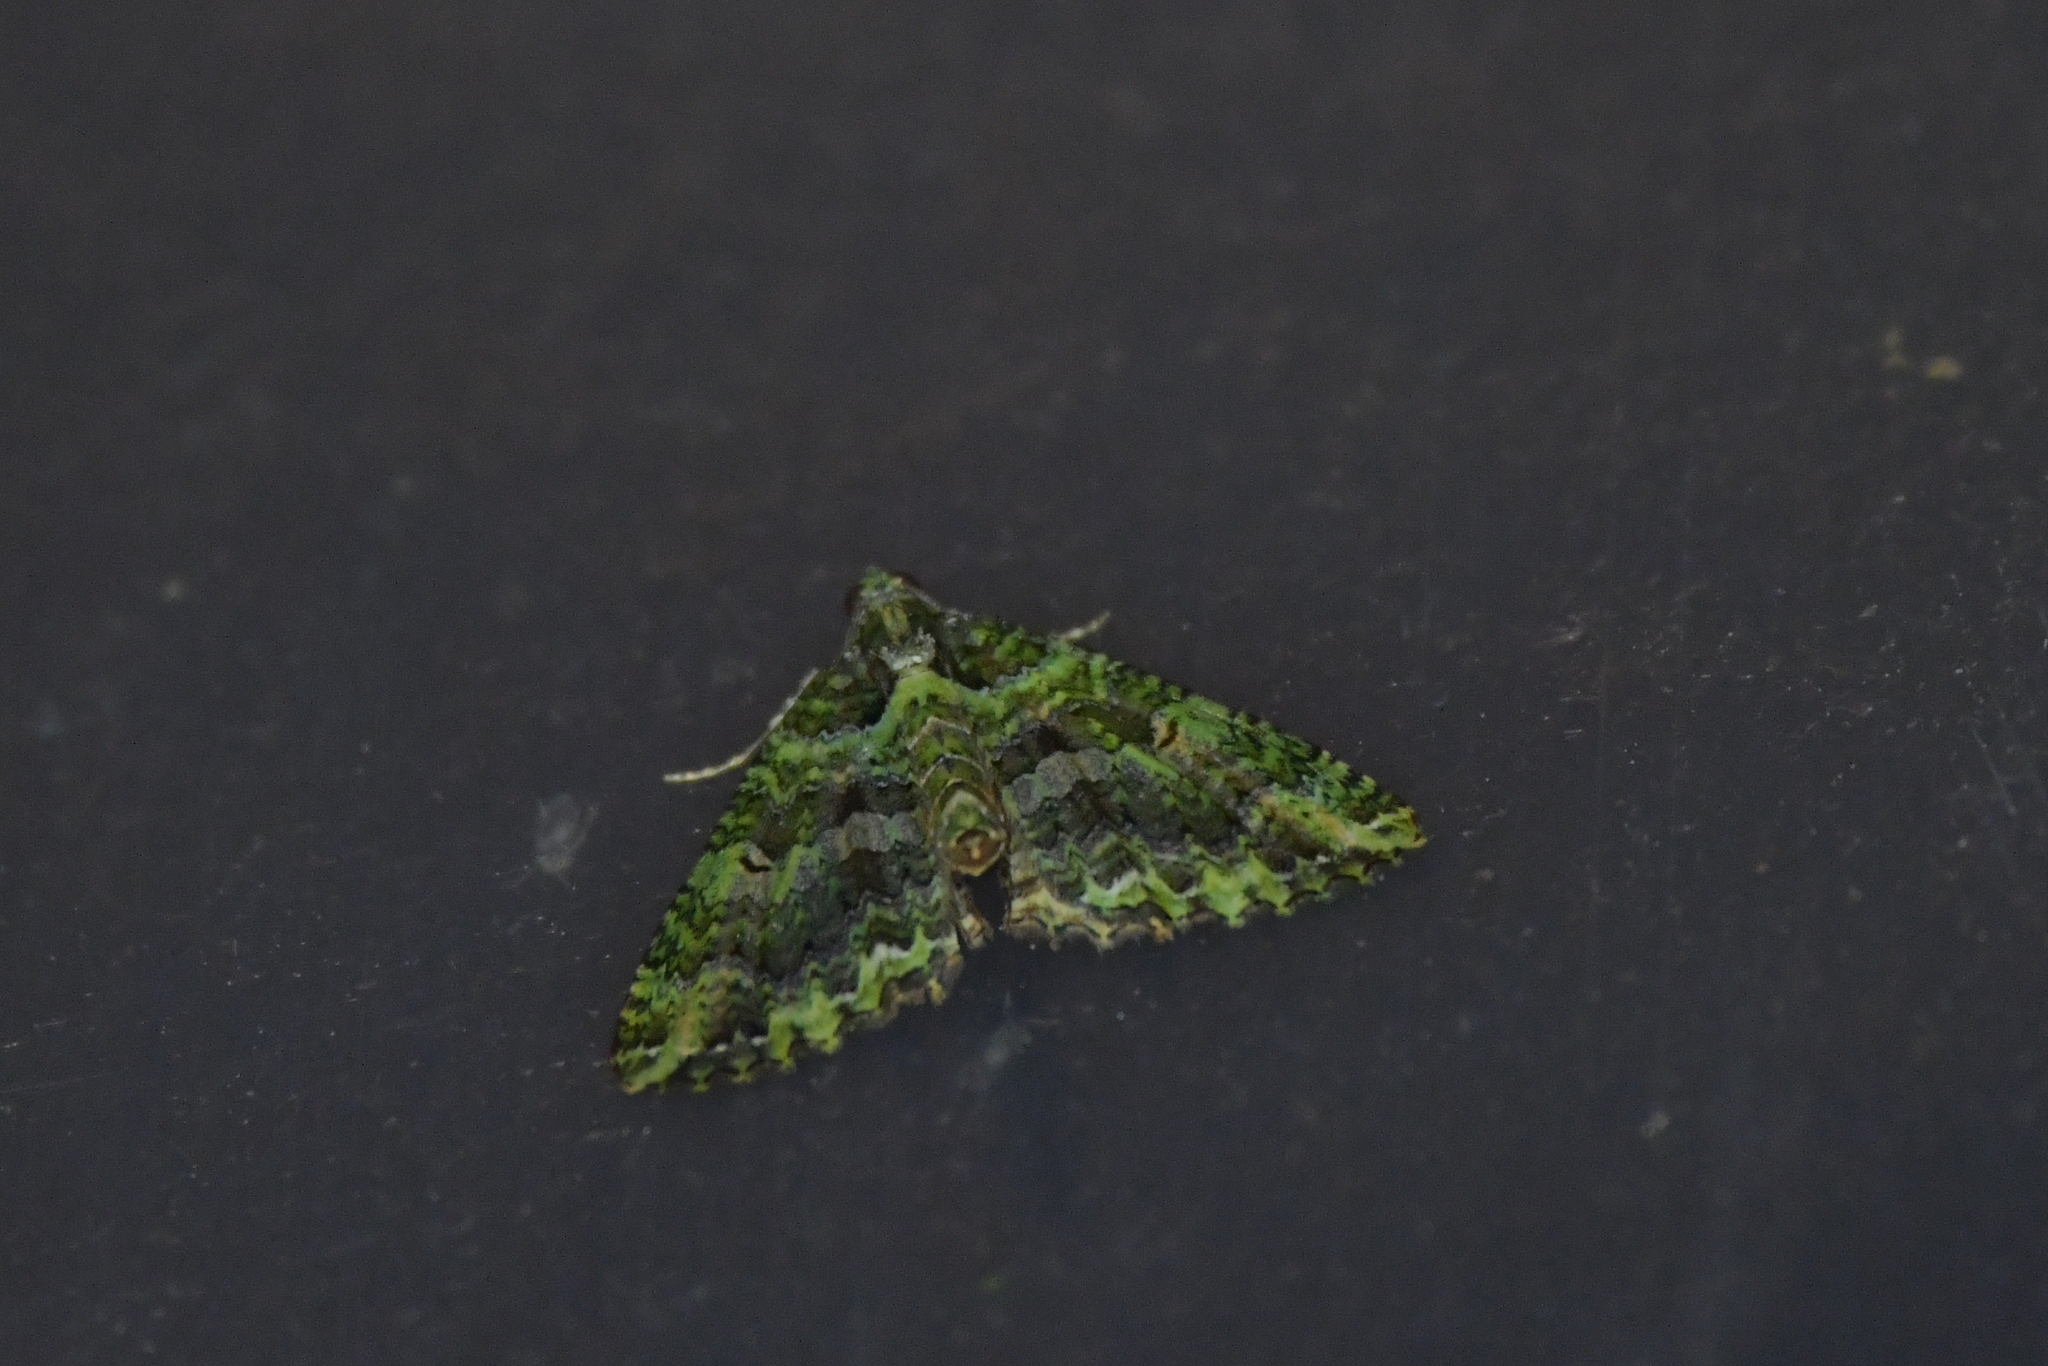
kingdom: Animalia
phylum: Arthropoda
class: Insecta
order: Lepidoptera
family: Geometridae
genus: Austrocidaria
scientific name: Austrocidaria similata
